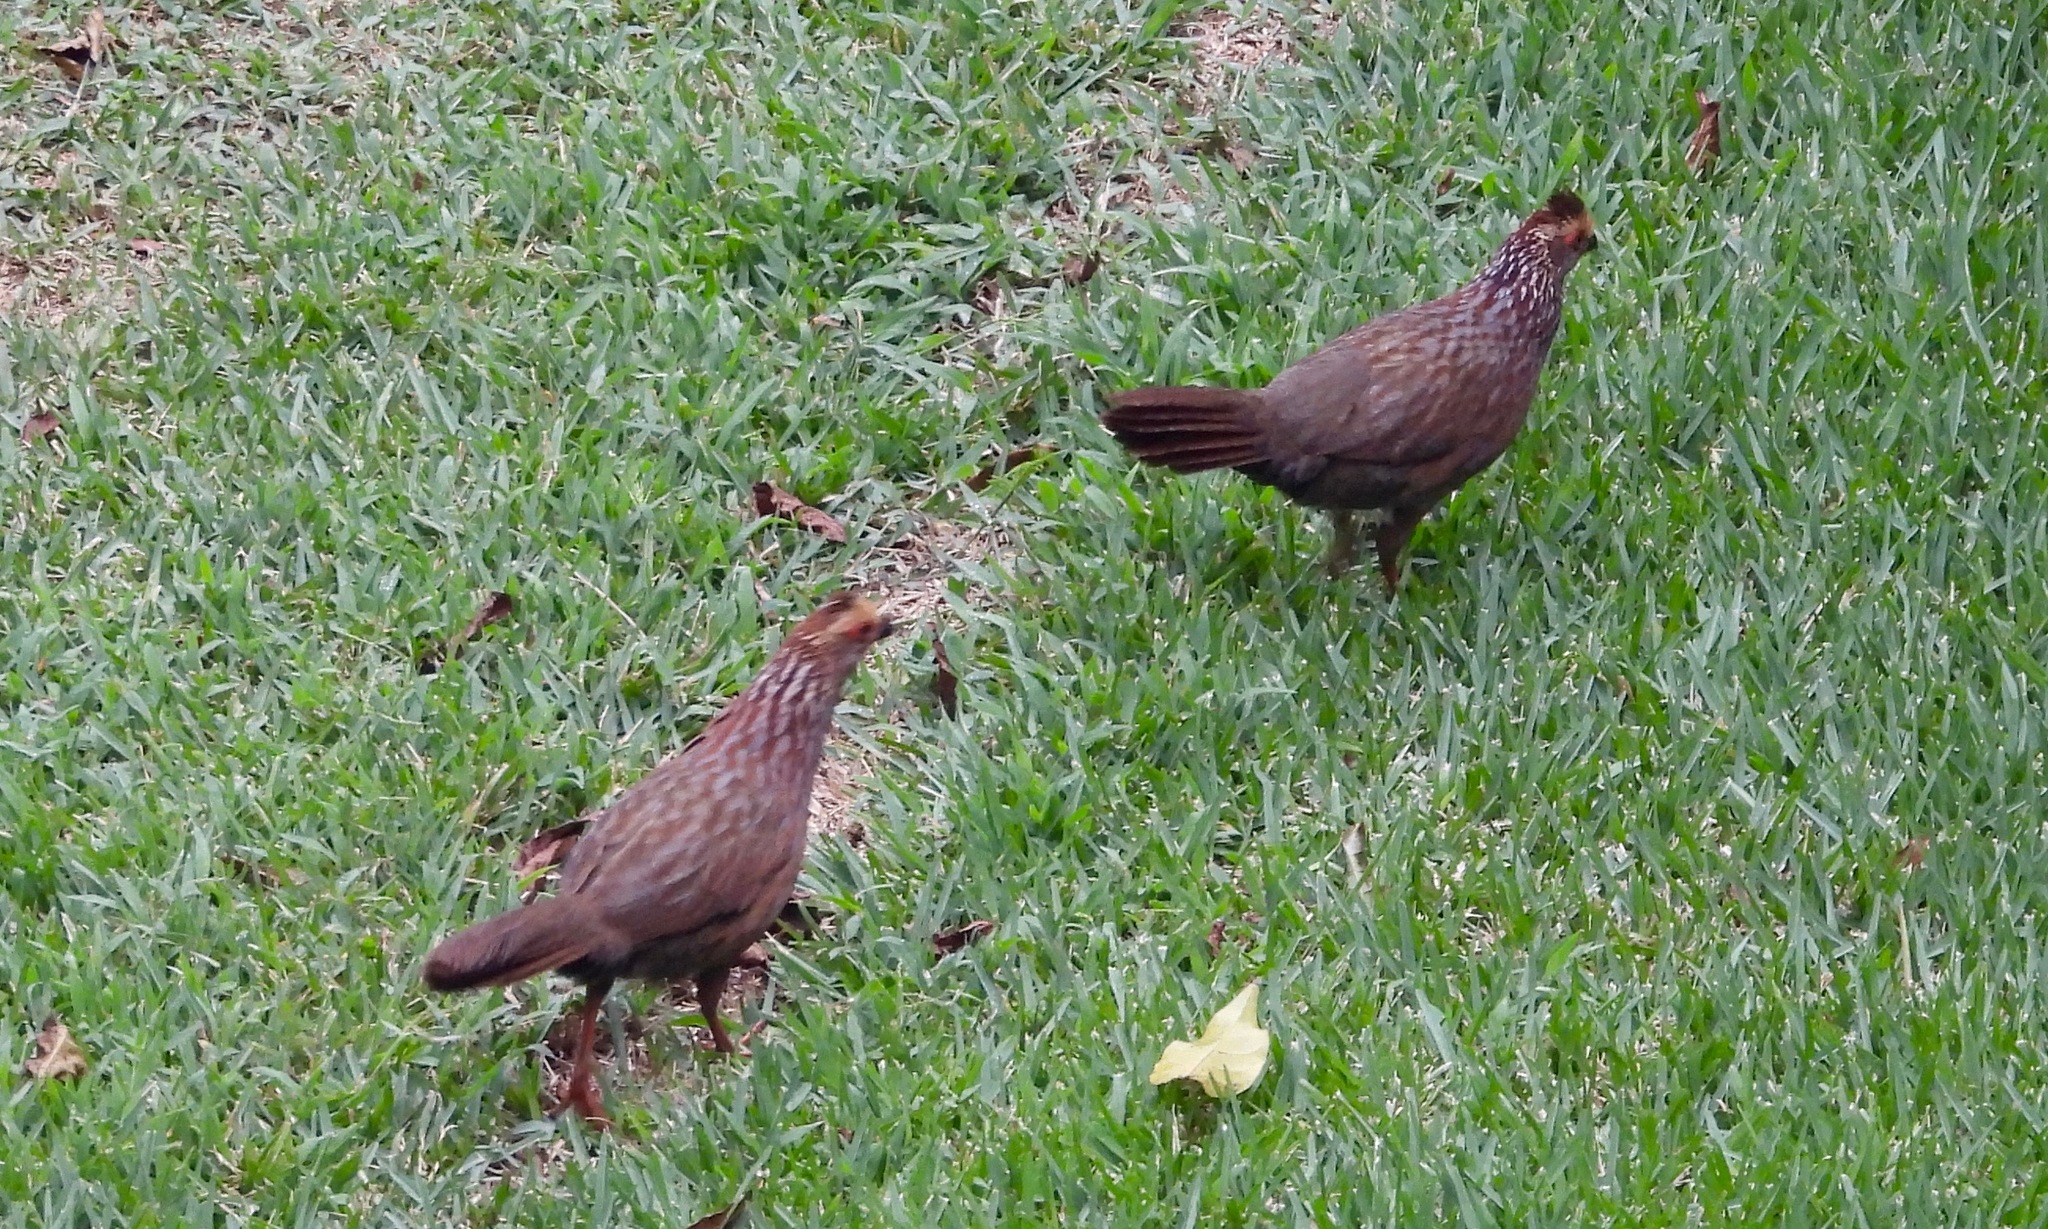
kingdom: Animalia
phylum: Chordata
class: Aves
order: Galliformes
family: Odontophoridae
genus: Dendrortyx
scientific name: Dendrortyx leucophrys
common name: Buffy-crowned wood-partridge
